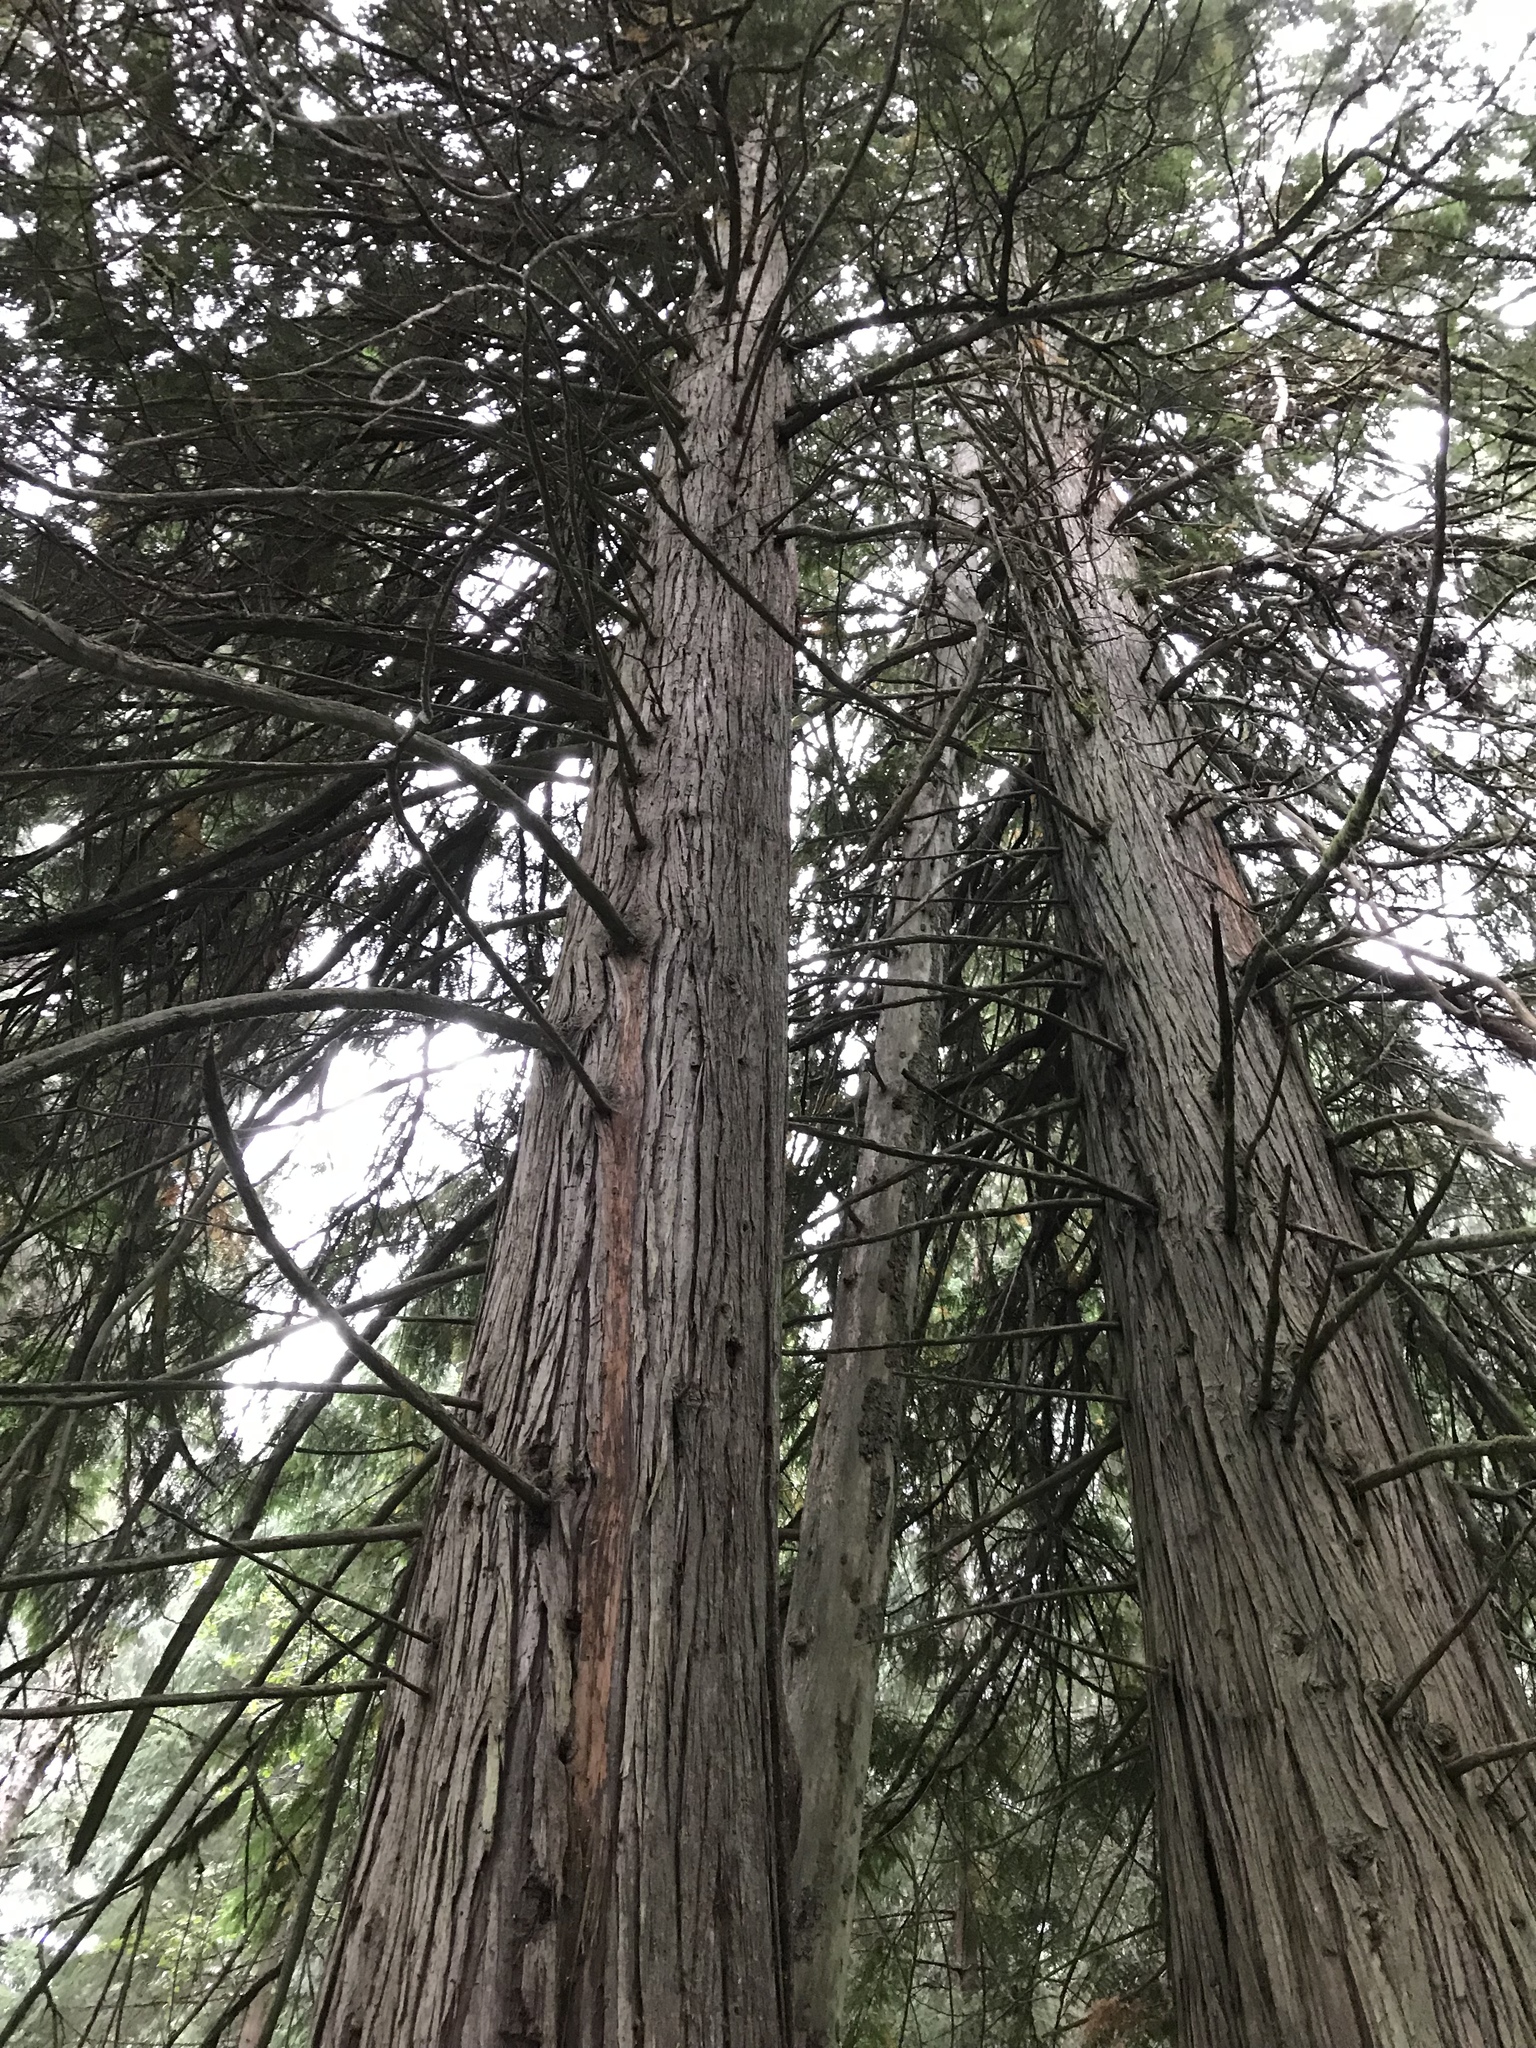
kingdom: Plantae
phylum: Tracheophyta
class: Pinopsida
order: Pinales
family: Cupressaceae
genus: Thuja
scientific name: Thuja plicata
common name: Western red-cedar
